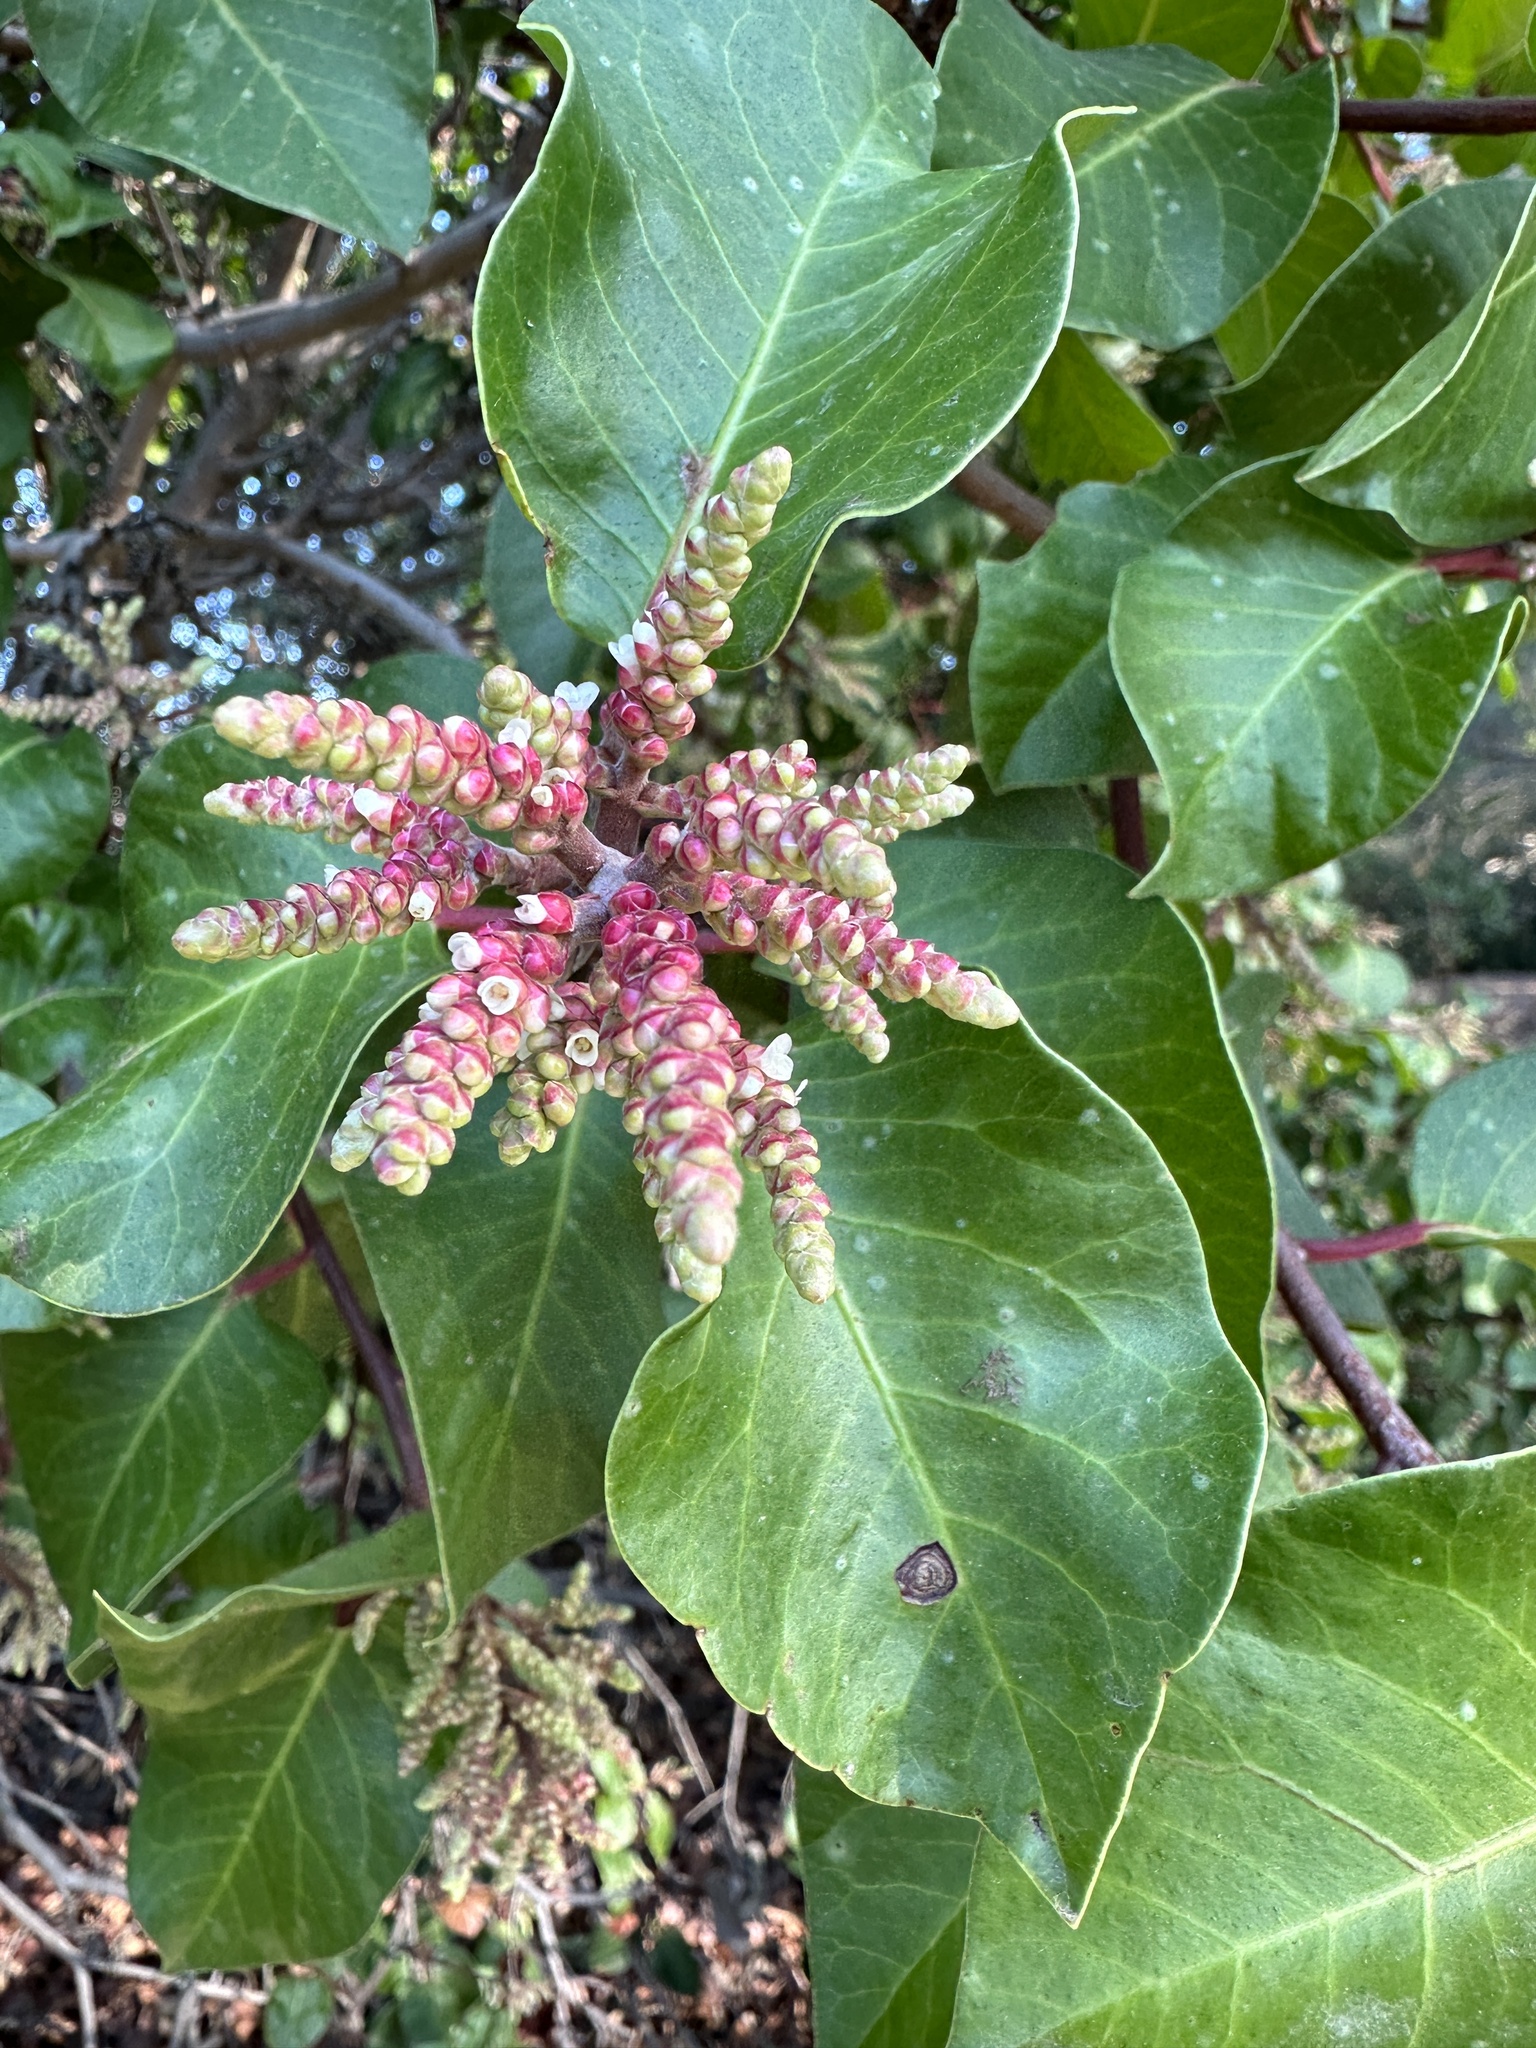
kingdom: Plantae
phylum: Tracheophyta
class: Magnoliopsida
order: Sapindales
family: Anacardiaceae
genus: Rhus
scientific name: Rhus ovata
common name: Sugar sumac
